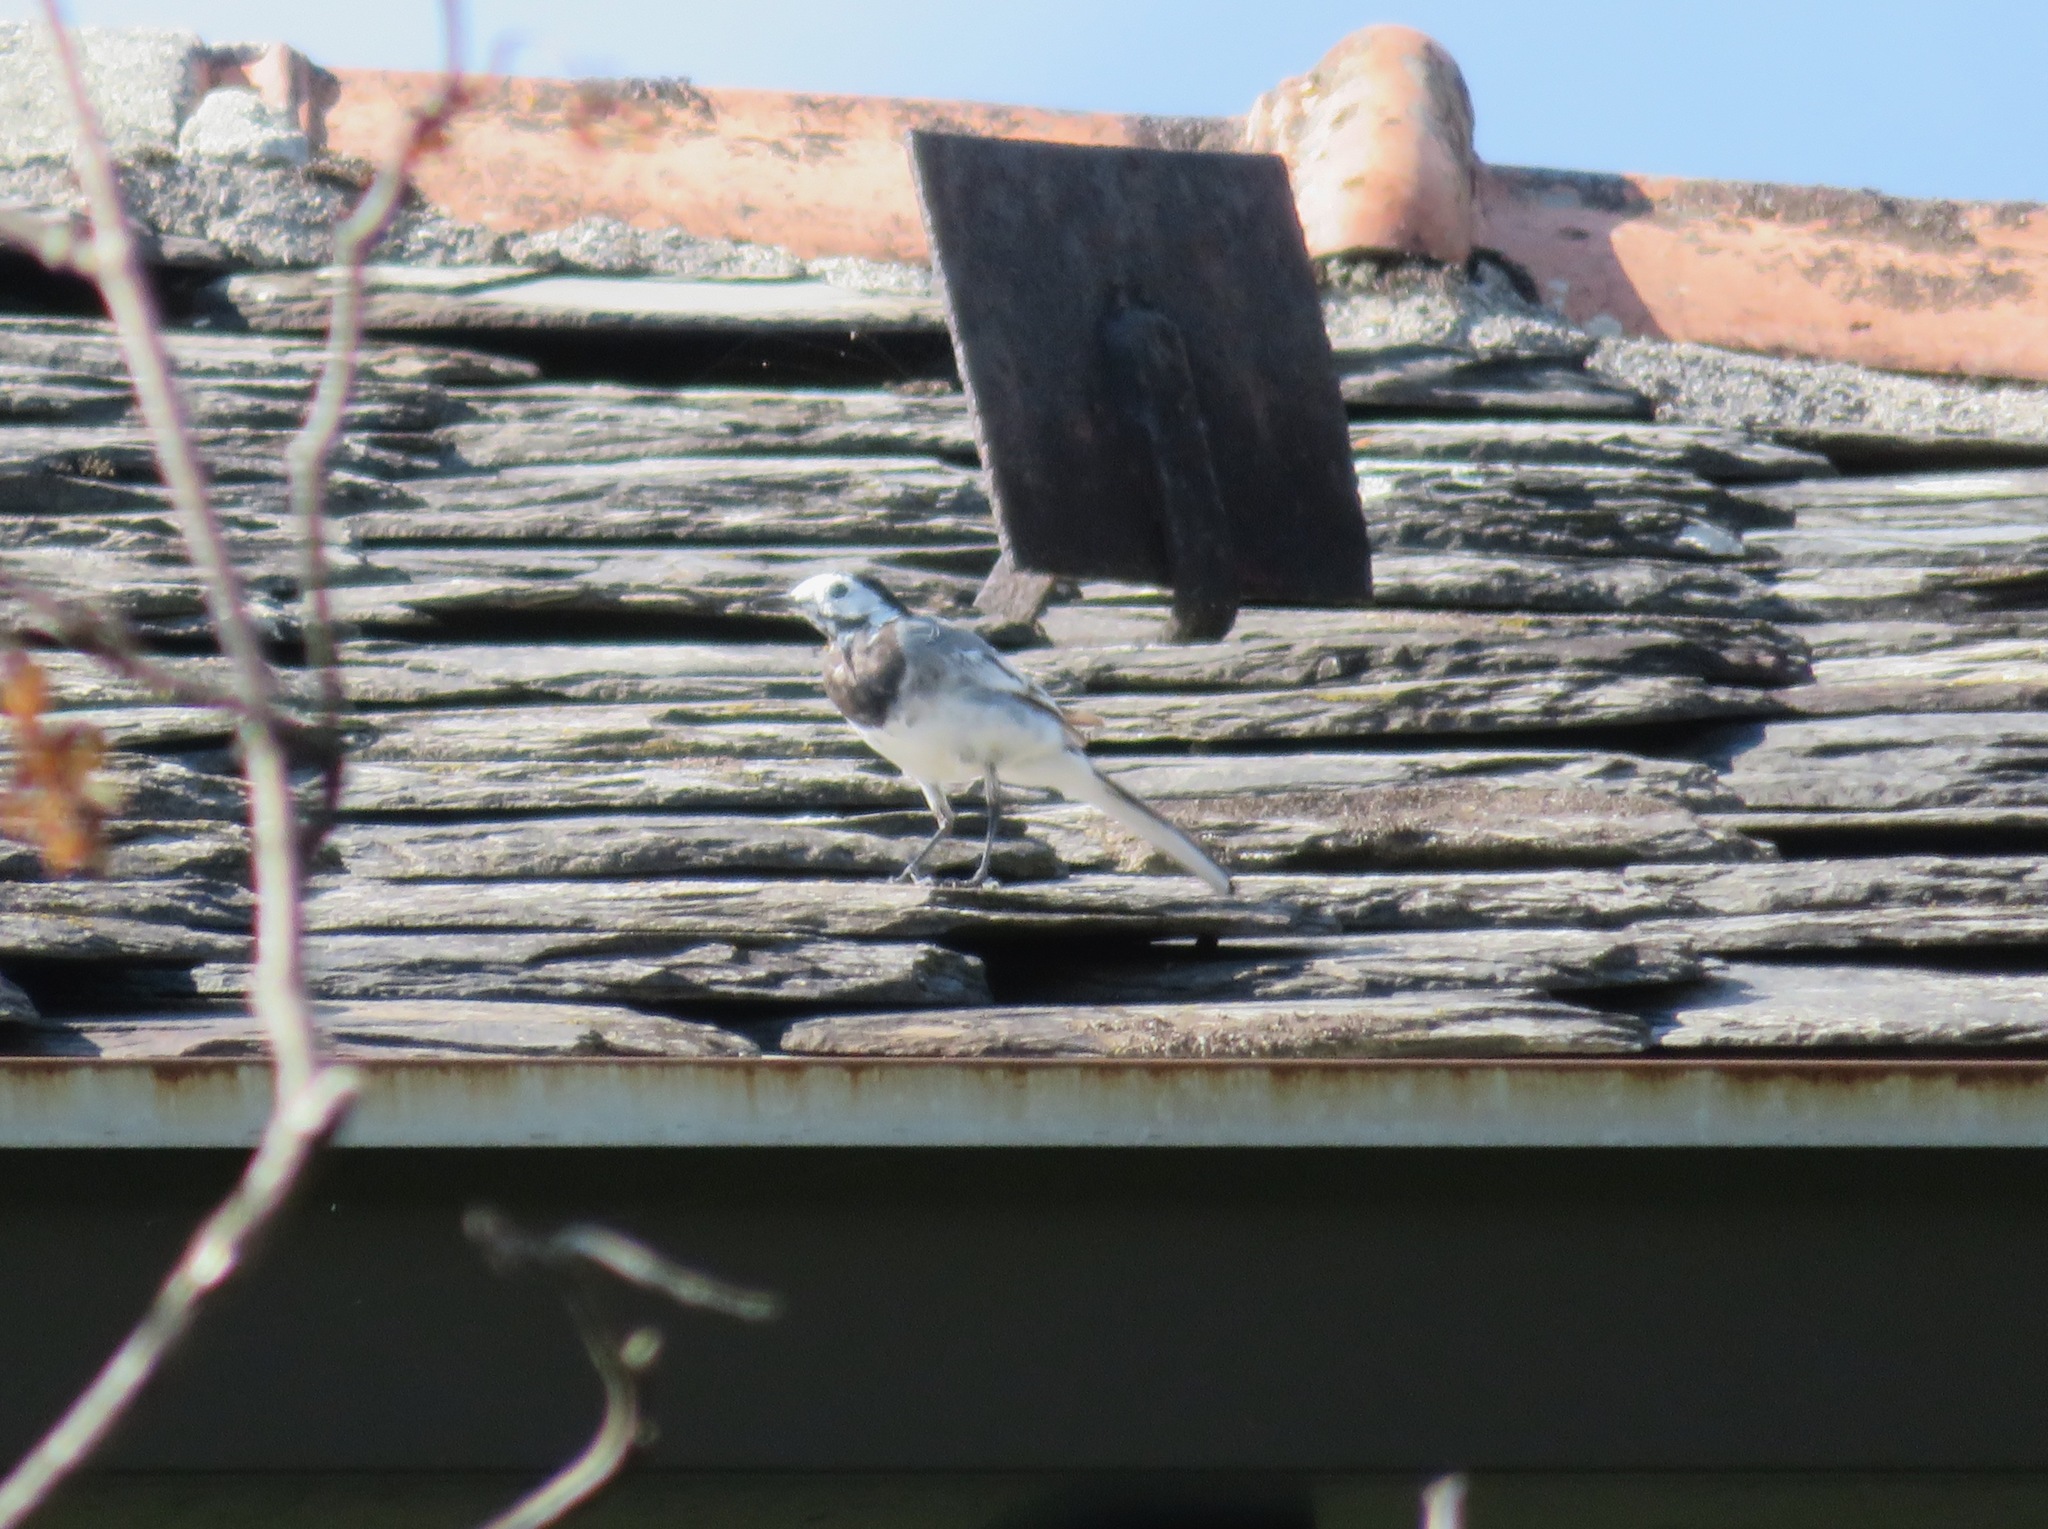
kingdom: Animalia
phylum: Chordata
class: Aves
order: Passeriformes
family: Motacillidae
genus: Motacilla
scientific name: Motacilla alba
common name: White wagtail
